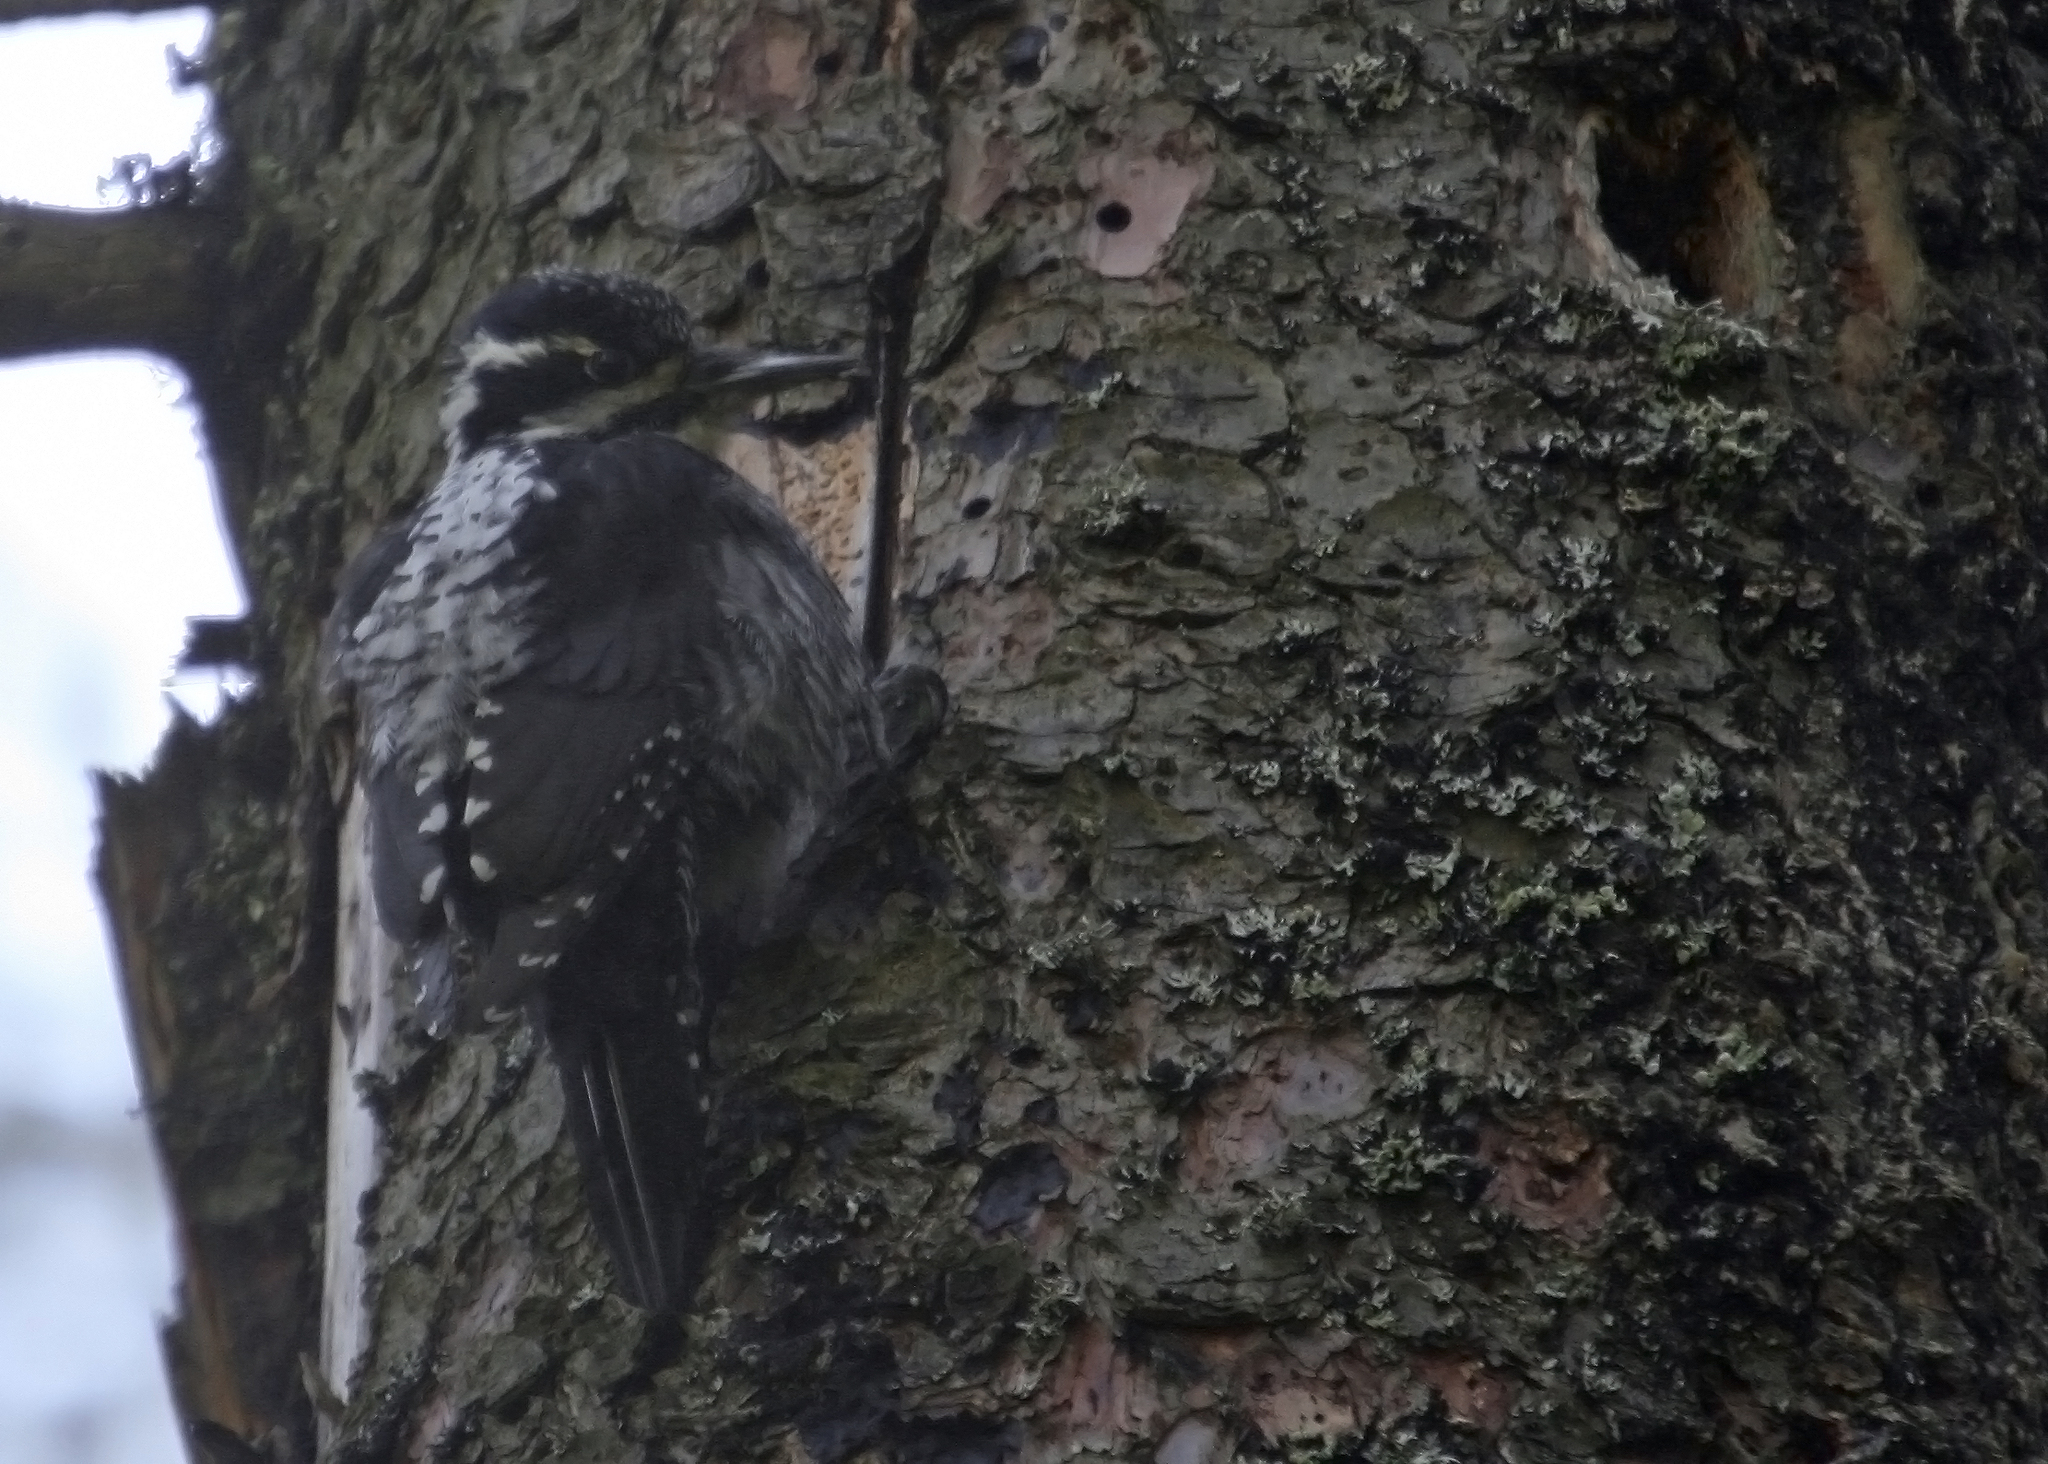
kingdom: Animalia
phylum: Chordata
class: Aves
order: Piciformes
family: Picidae
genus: Picoides
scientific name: Picoides tridactylus
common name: Eurasian three-toed woodpecker
